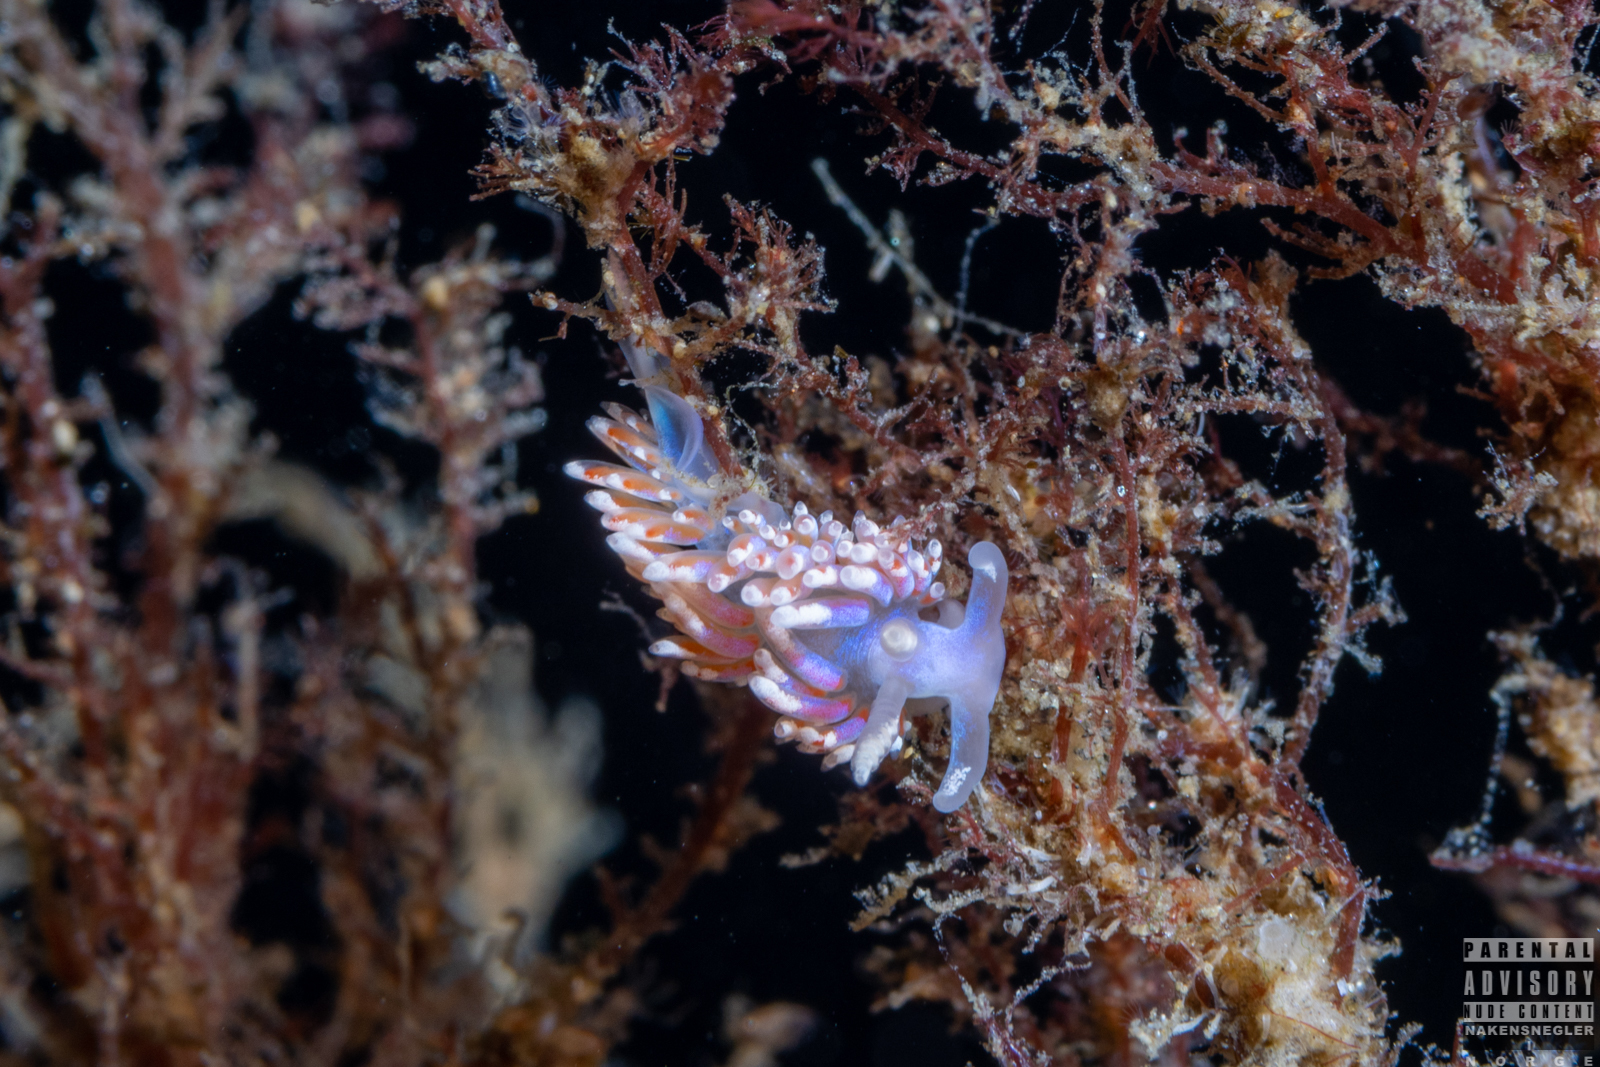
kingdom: Animalia
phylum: Mollusca
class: Gastropoda
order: Nudibranchia
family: Facelinidae
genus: Facelina
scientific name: Facelina auriculata
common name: Slender facelina
